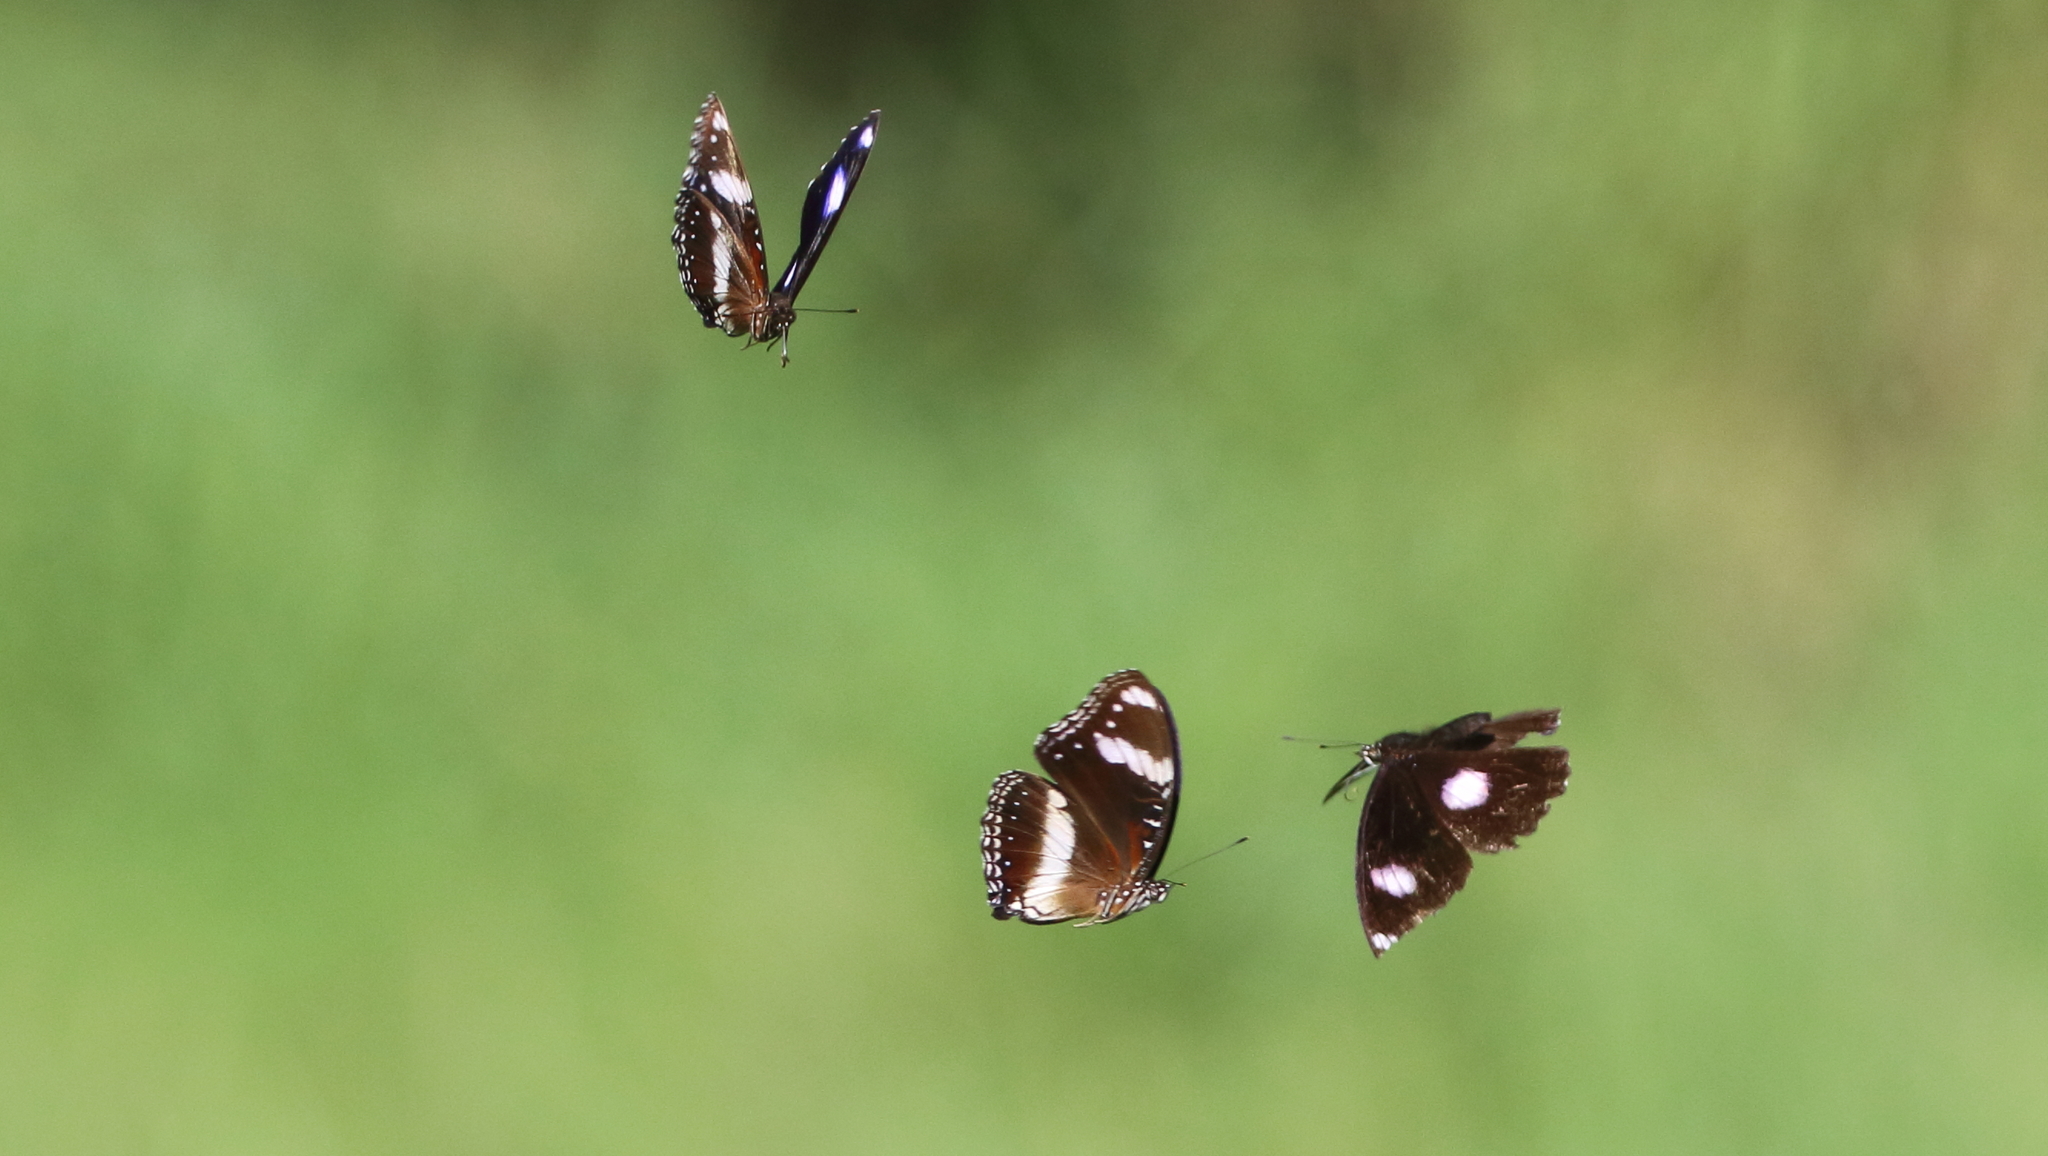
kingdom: Animalia
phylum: Arthropoda
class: Insecta
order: Lepidoptera
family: Nymphalidae
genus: Hypolimnas
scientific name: Hypolimnas bolina
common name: Great eggfly
